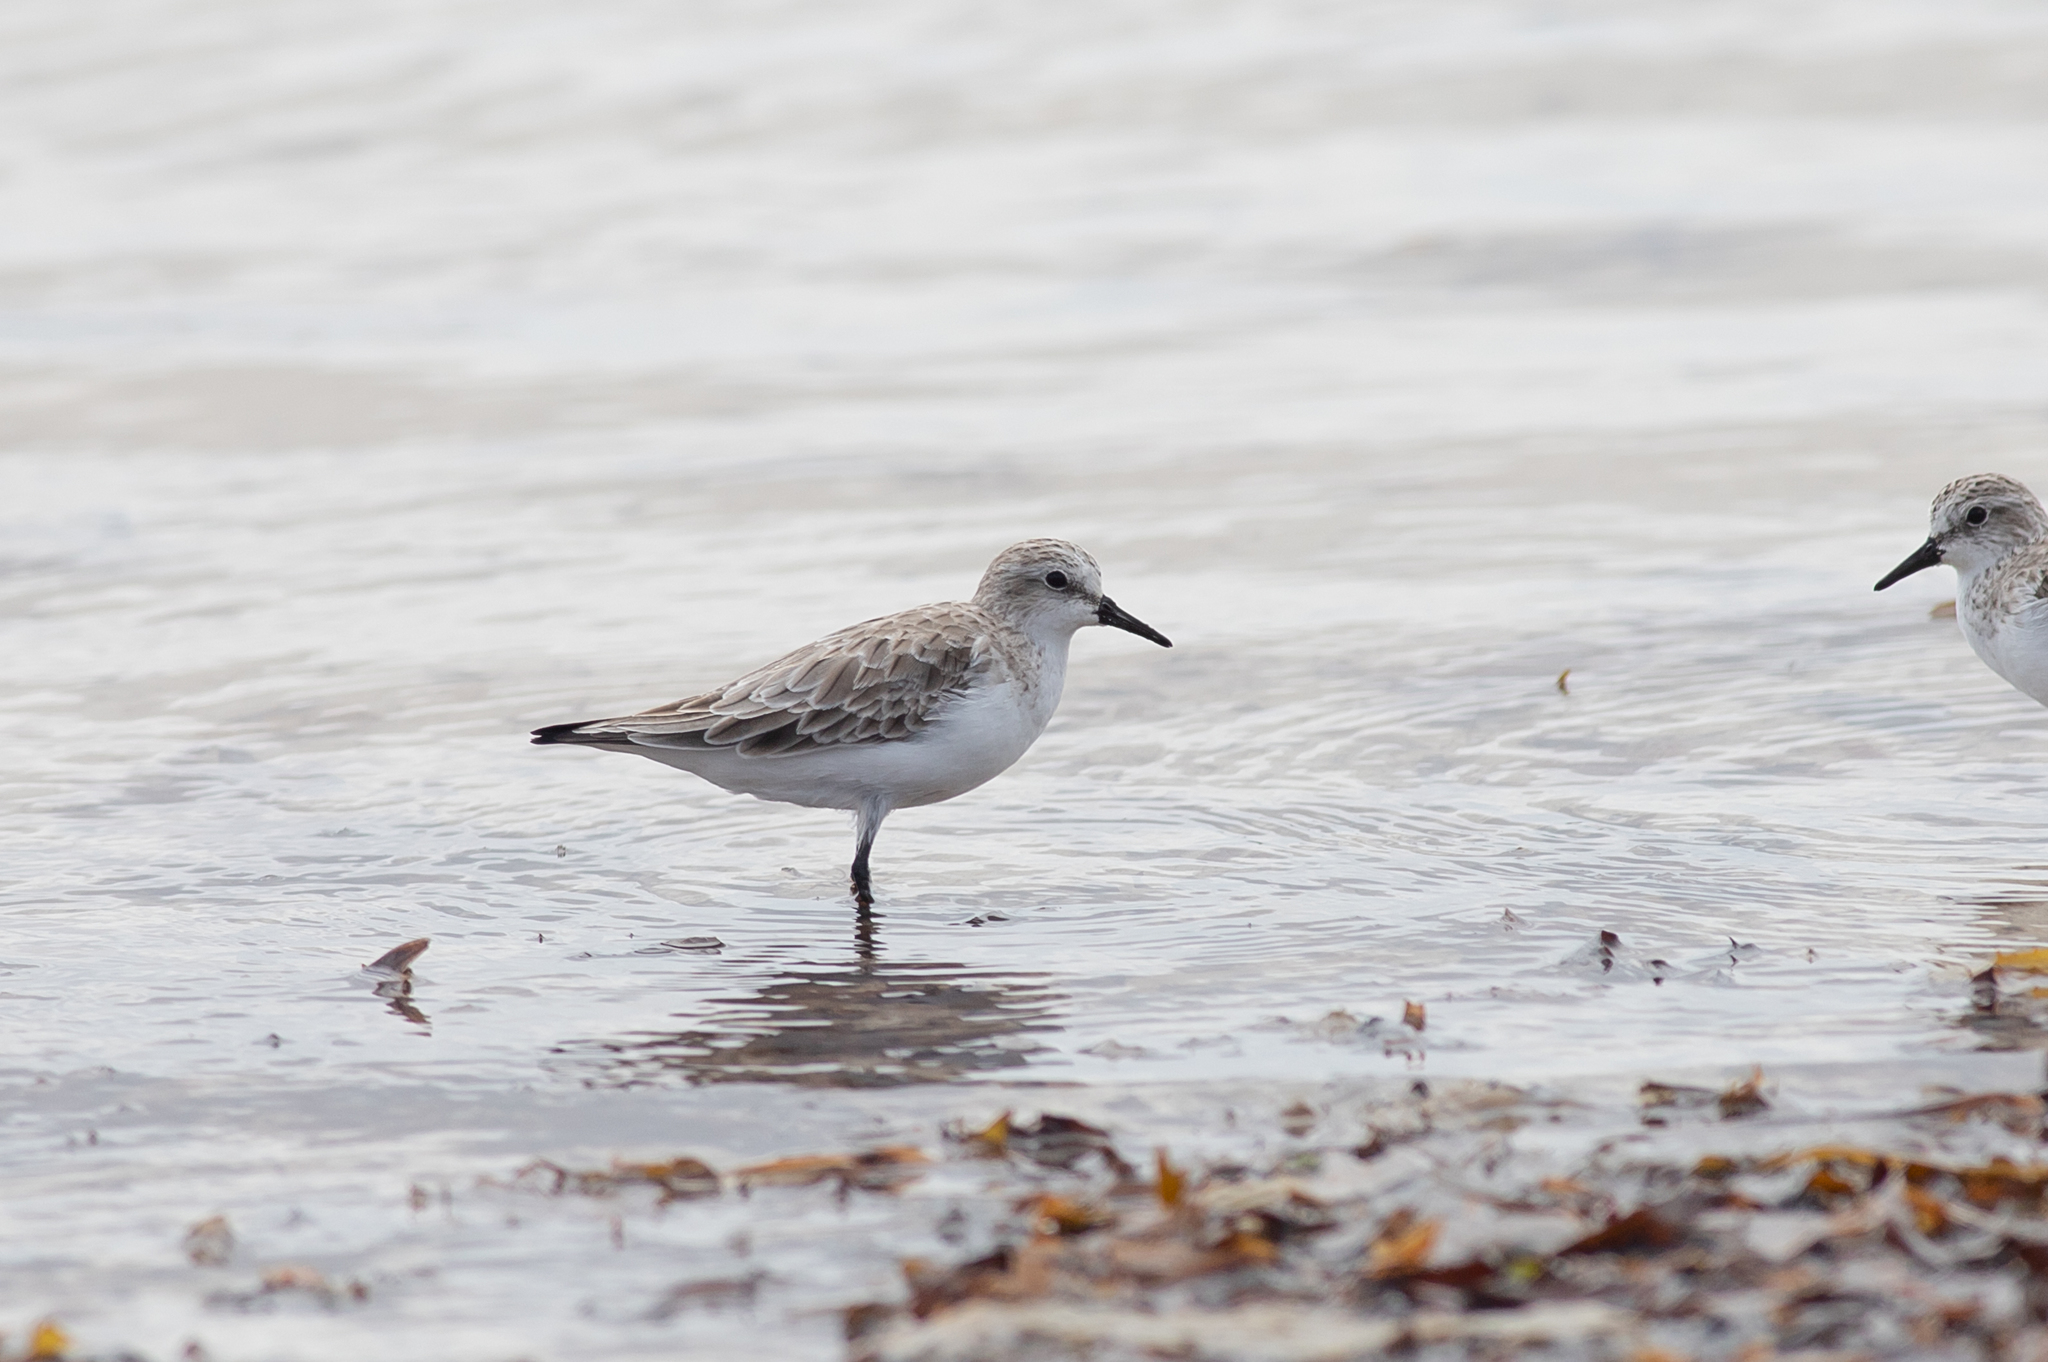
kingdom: Animalia
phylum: Chordata
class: Aves
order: Charadriiformes
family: Scolopacidae
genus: Calidris
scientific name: Calidris ruficollis
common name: Red-necked stint
